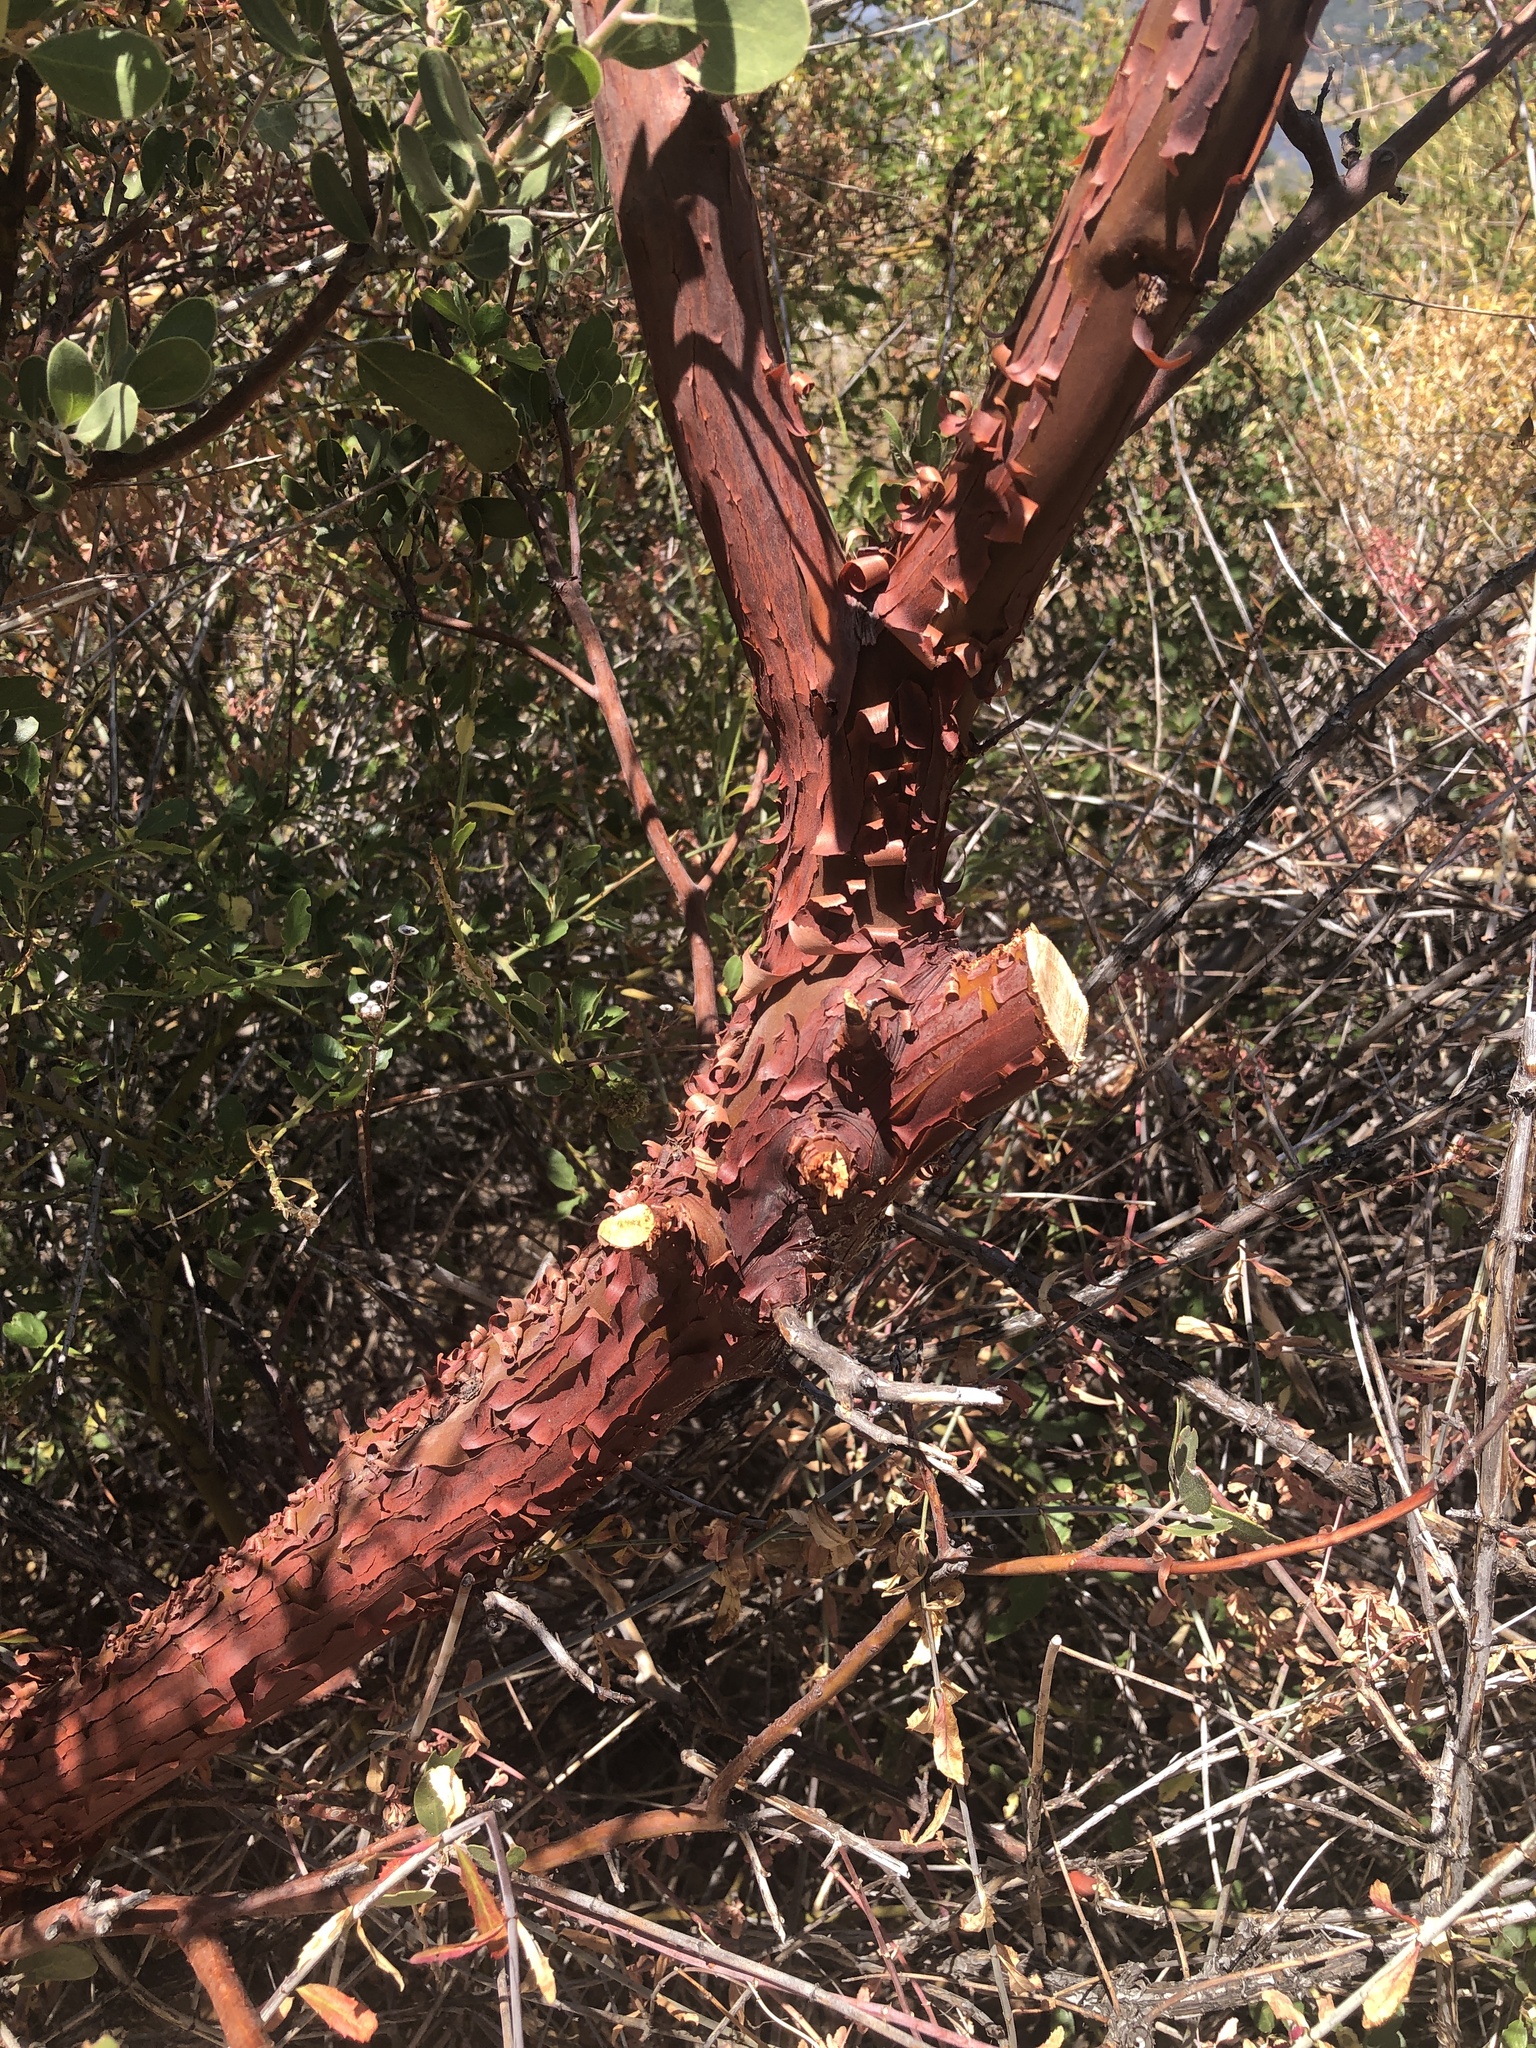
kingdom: Plantae
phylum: Tracheophyta
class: Magnoliopsida
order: Ericales
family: Ericaceae
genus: Arctostaphylos
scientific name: Arctostaphylos pungens
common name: Mexican manzanita
